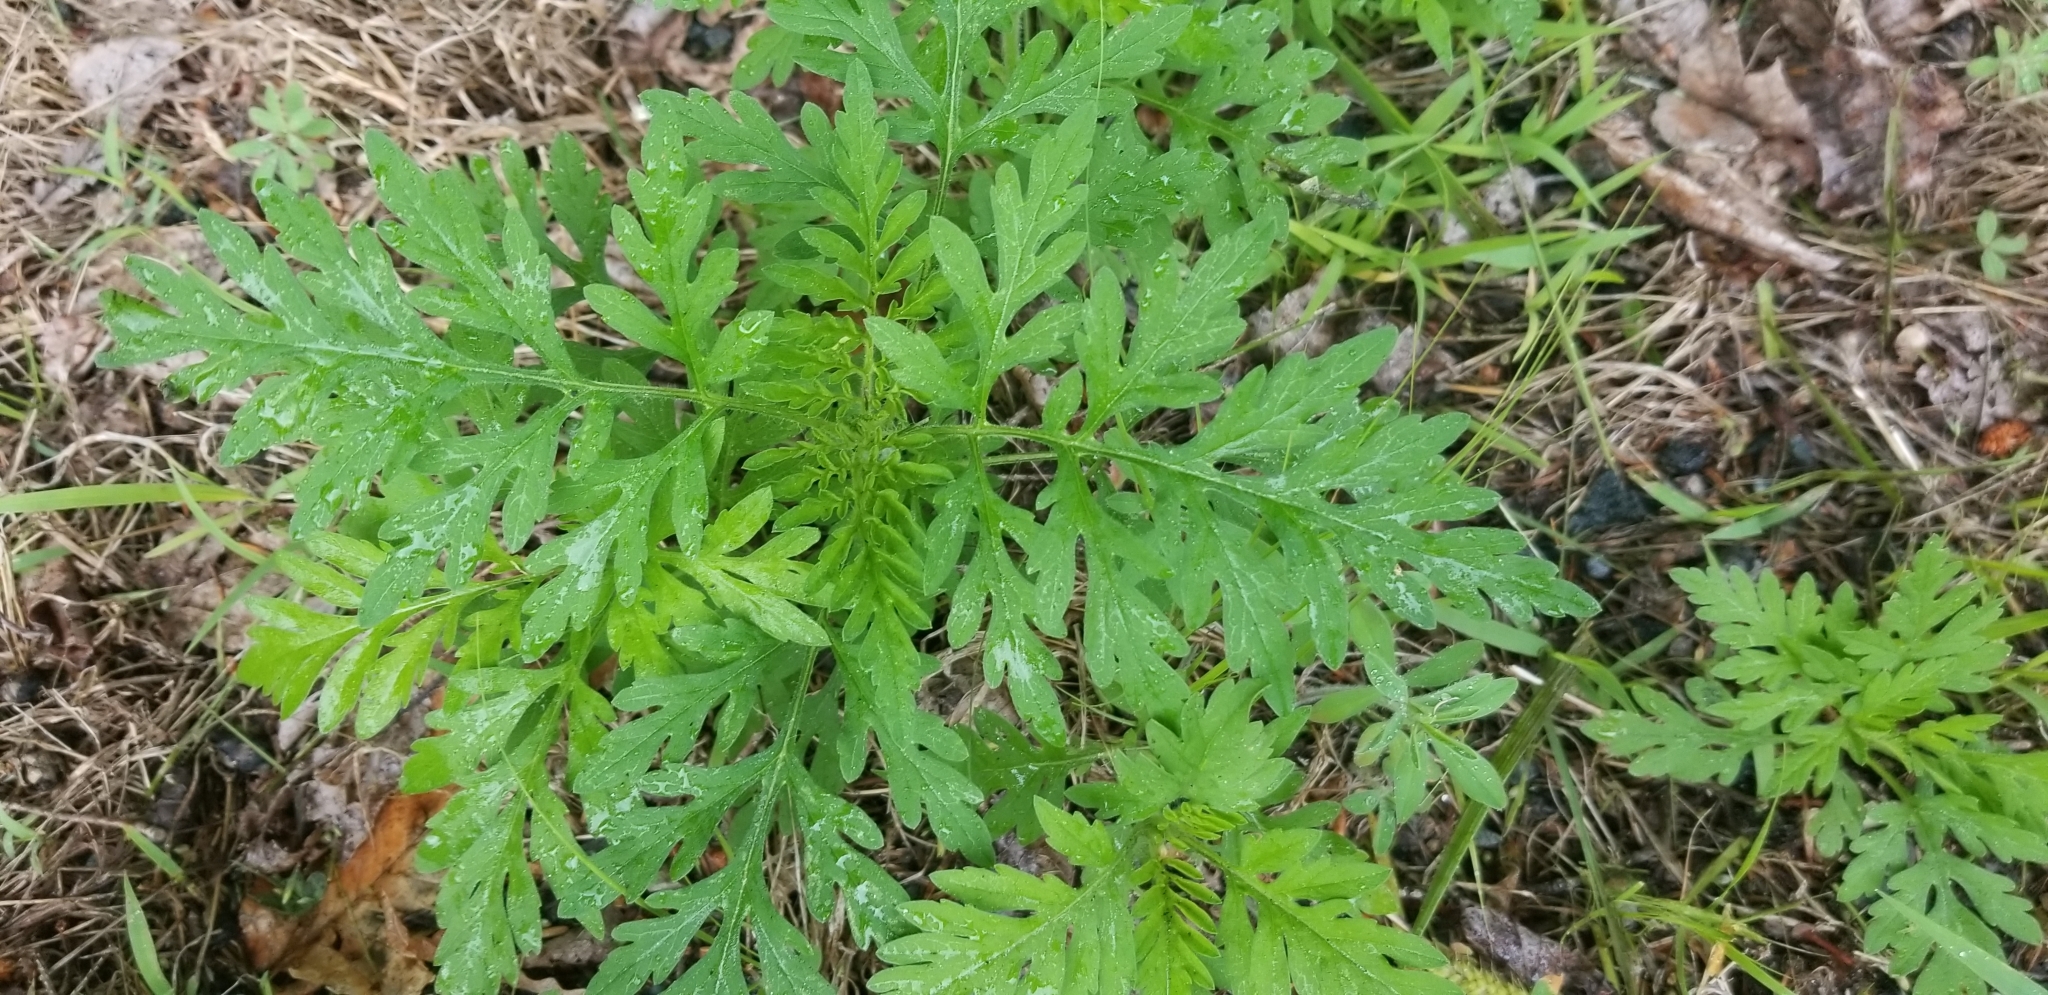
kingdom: Plantae
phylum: Tracheophyta
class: Magnoliopsida
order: Asterales
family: Asteraceae
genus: Ambrosia
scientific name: Ambrosia artemisiifolia
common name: Annual ragweed
